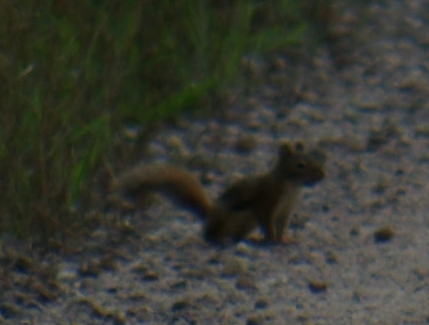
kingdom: Animalia
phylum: Chordata
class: Mammalia
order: Rodentia
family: Sciuridae
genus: Tamiasciurus
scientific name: Tamiasciurus hudsonicus
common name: Red squirrel
